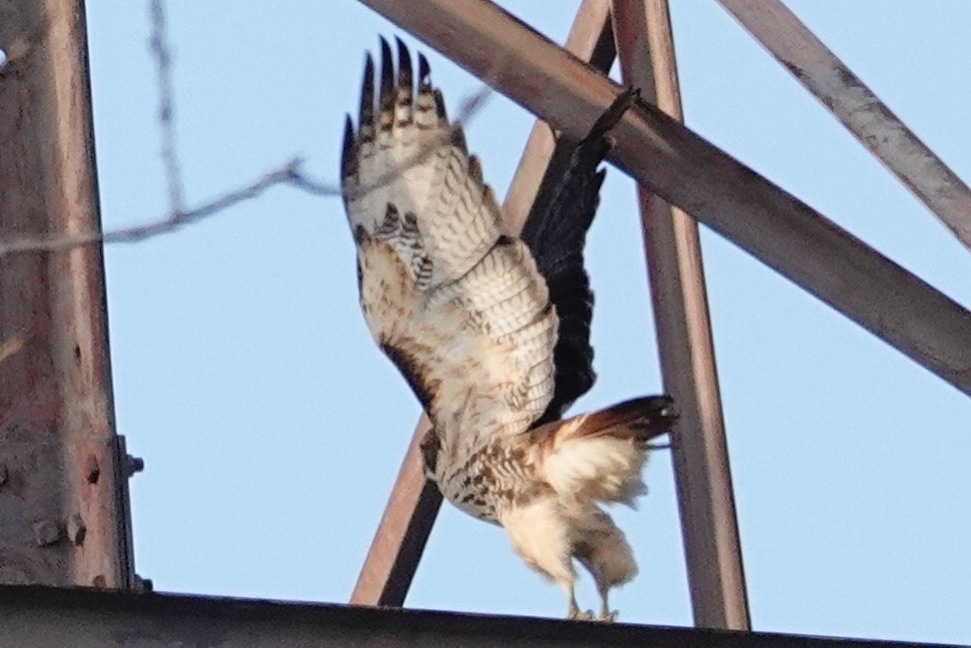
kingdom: Animalia
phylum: Chordata
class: Aves
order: Accipitriformes
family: Accipitridae
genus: Buteo
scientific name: Buteo jamaicensis
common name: Red-tailed hawk
